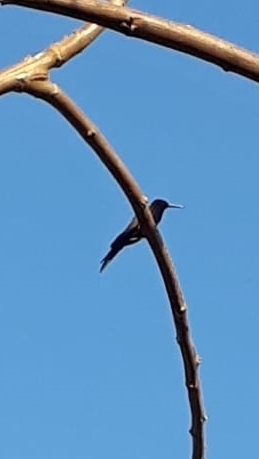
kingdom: Animalia
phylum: Chordata
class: Aves
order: Apodiformes
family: Trochilidae
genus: Eupetomena
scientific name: Eupetomena macroura
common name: Swallow-tailed hummingbird
